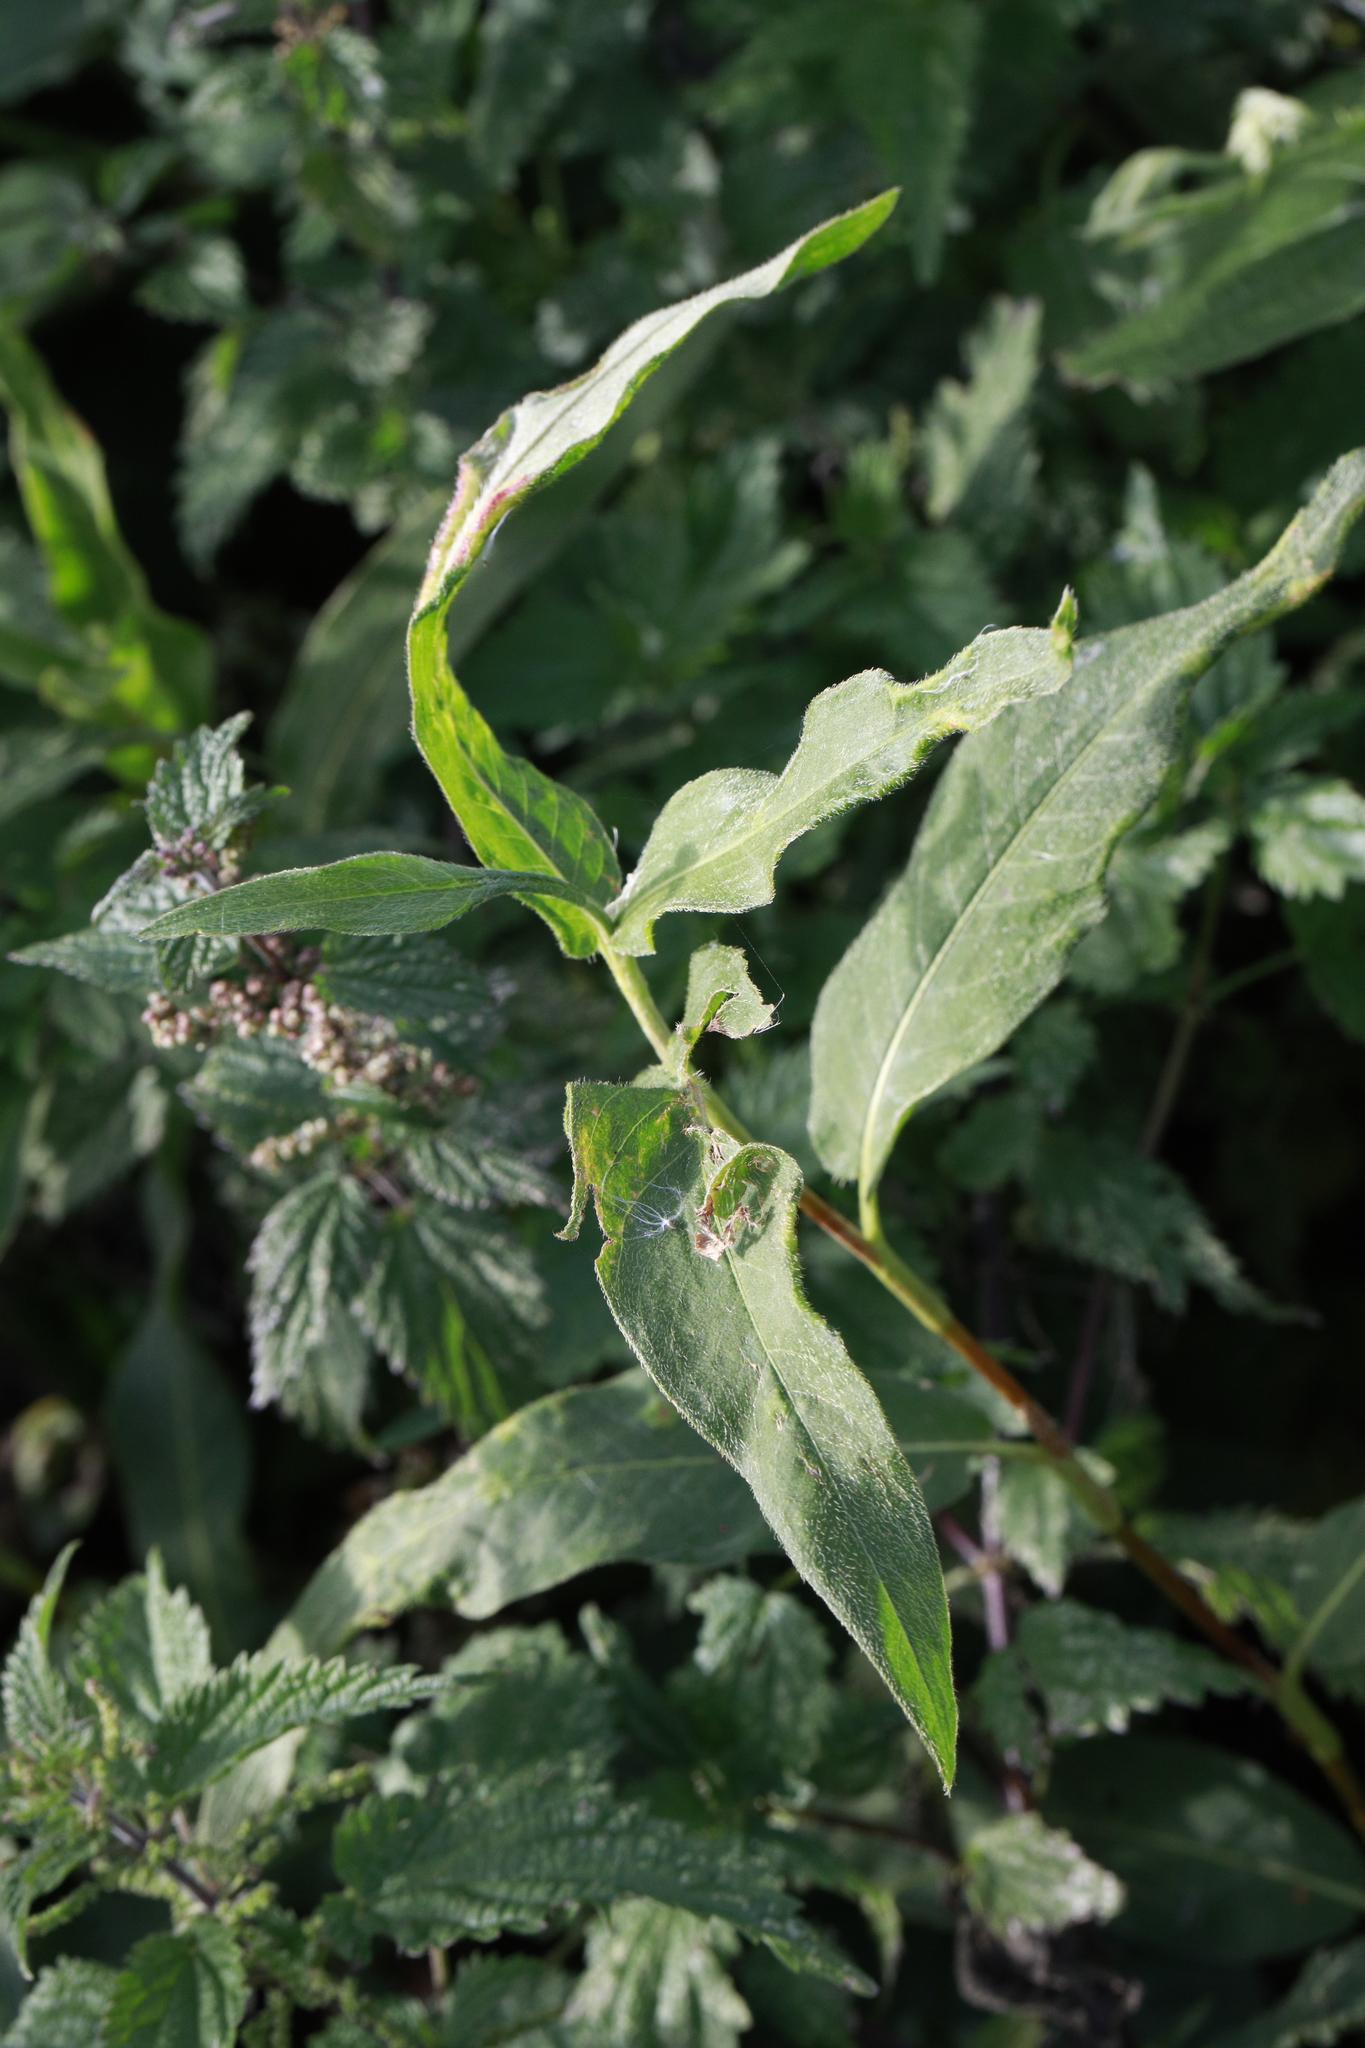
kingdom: Plantae
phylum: Tracheophyta
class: Magnoliopsida
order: Caryophyllales
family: Polygonaceae
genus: Persicaria
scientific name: Persicaria maculosa
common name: Redshank
